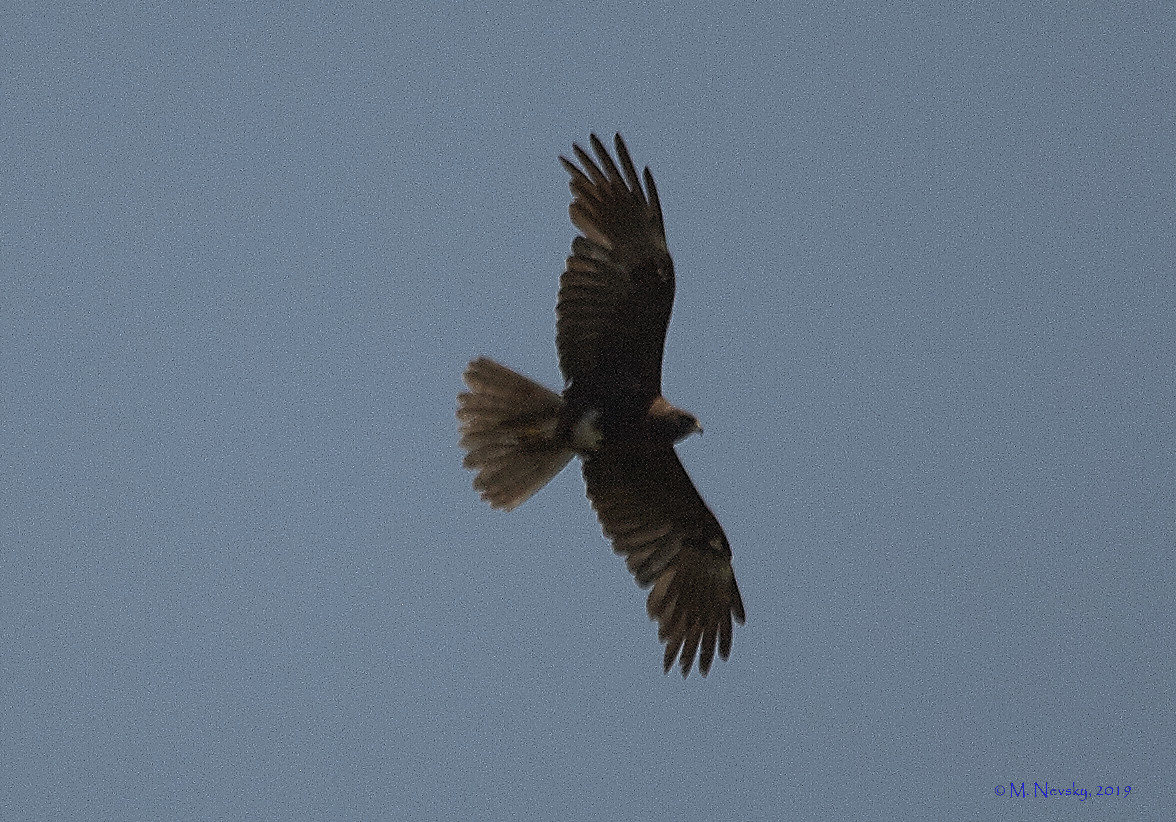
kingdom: Animalia
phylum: Chordata
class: Aves
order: Accipitriformes
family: Accipitridae
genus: Circus
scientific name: Circus aeruginosus
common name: Western marsh harrier
